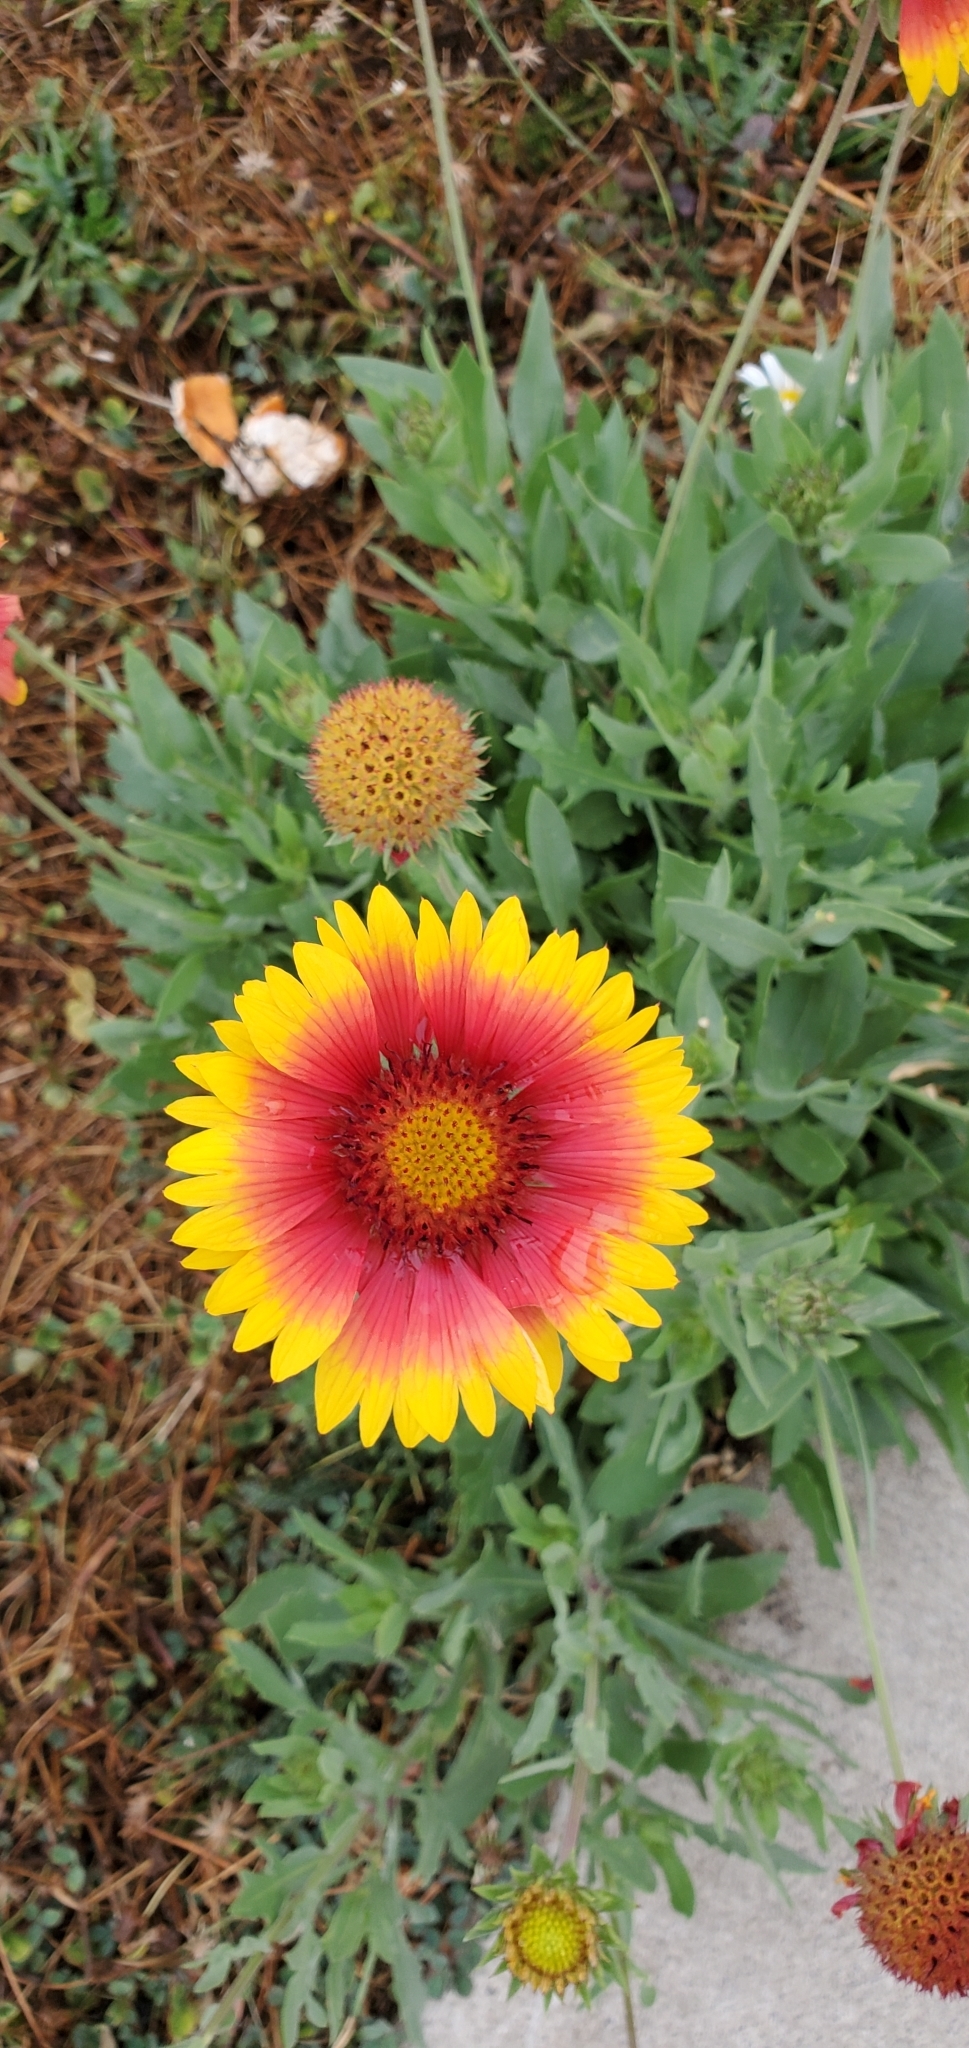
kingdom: Plantae
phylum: Tracheophyta
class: Magnoliopsida
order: Asterales
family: Asteraceae
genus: Gaillardia
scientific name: Gaillardia pulchella
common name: Firewheel
